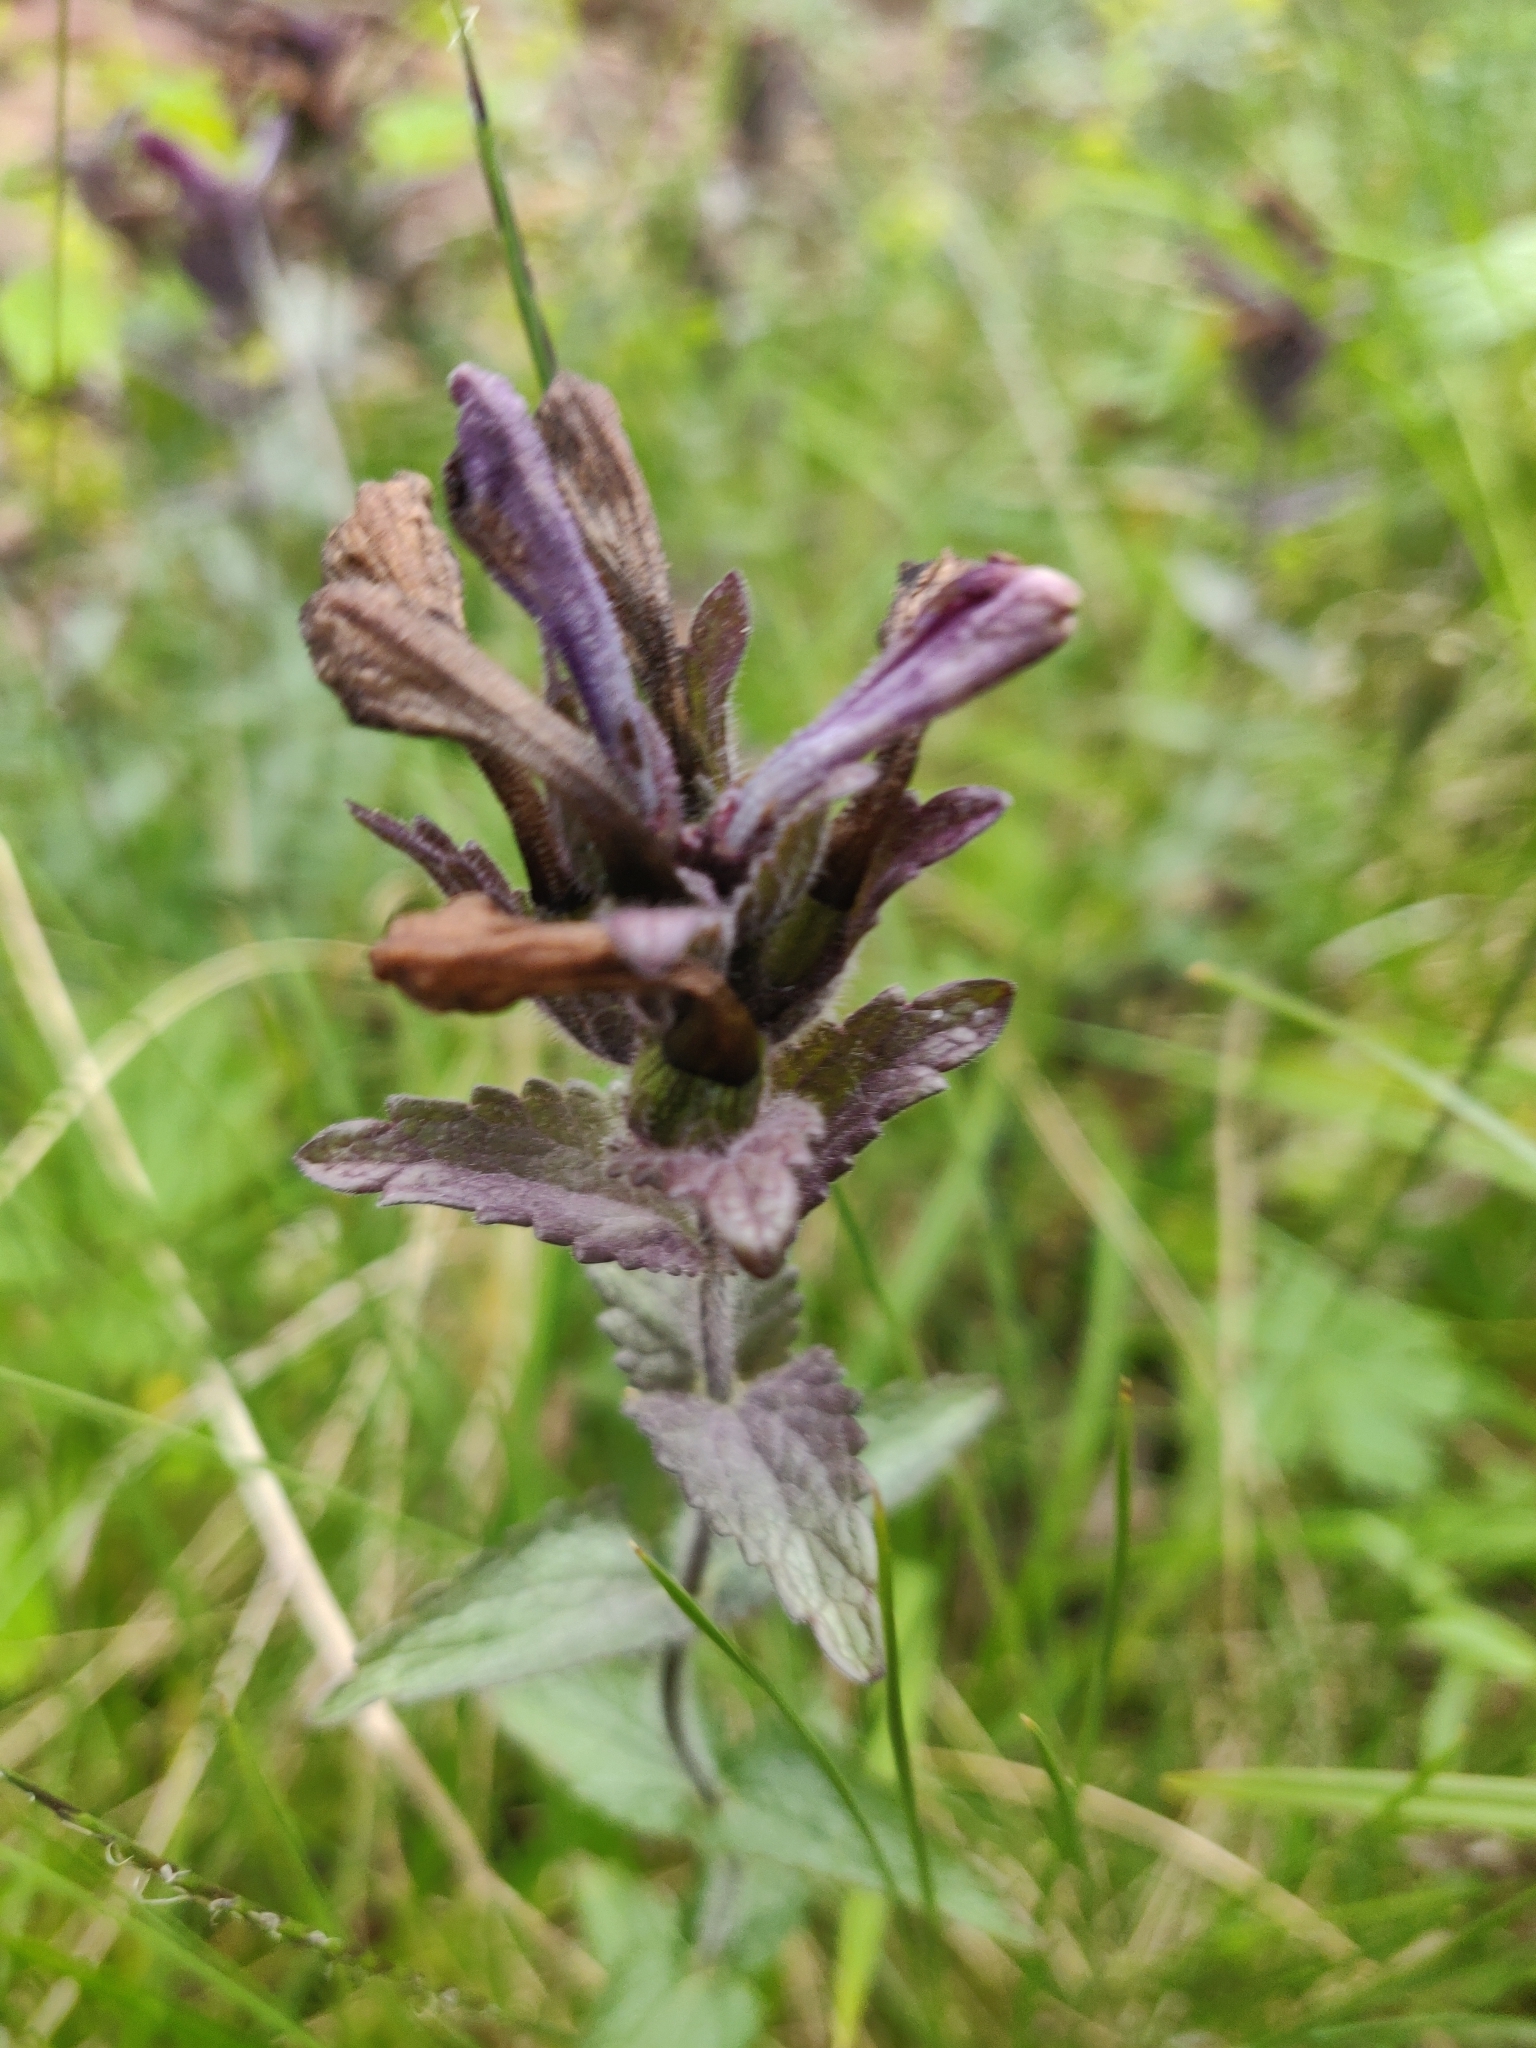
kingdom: Plantae
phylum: Tracheophyta
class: Magnoliopsida
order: Lamiales
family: Orobanchaceae
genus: Bartsia
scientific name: Bartsia alpina
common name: Alpine bartsia
